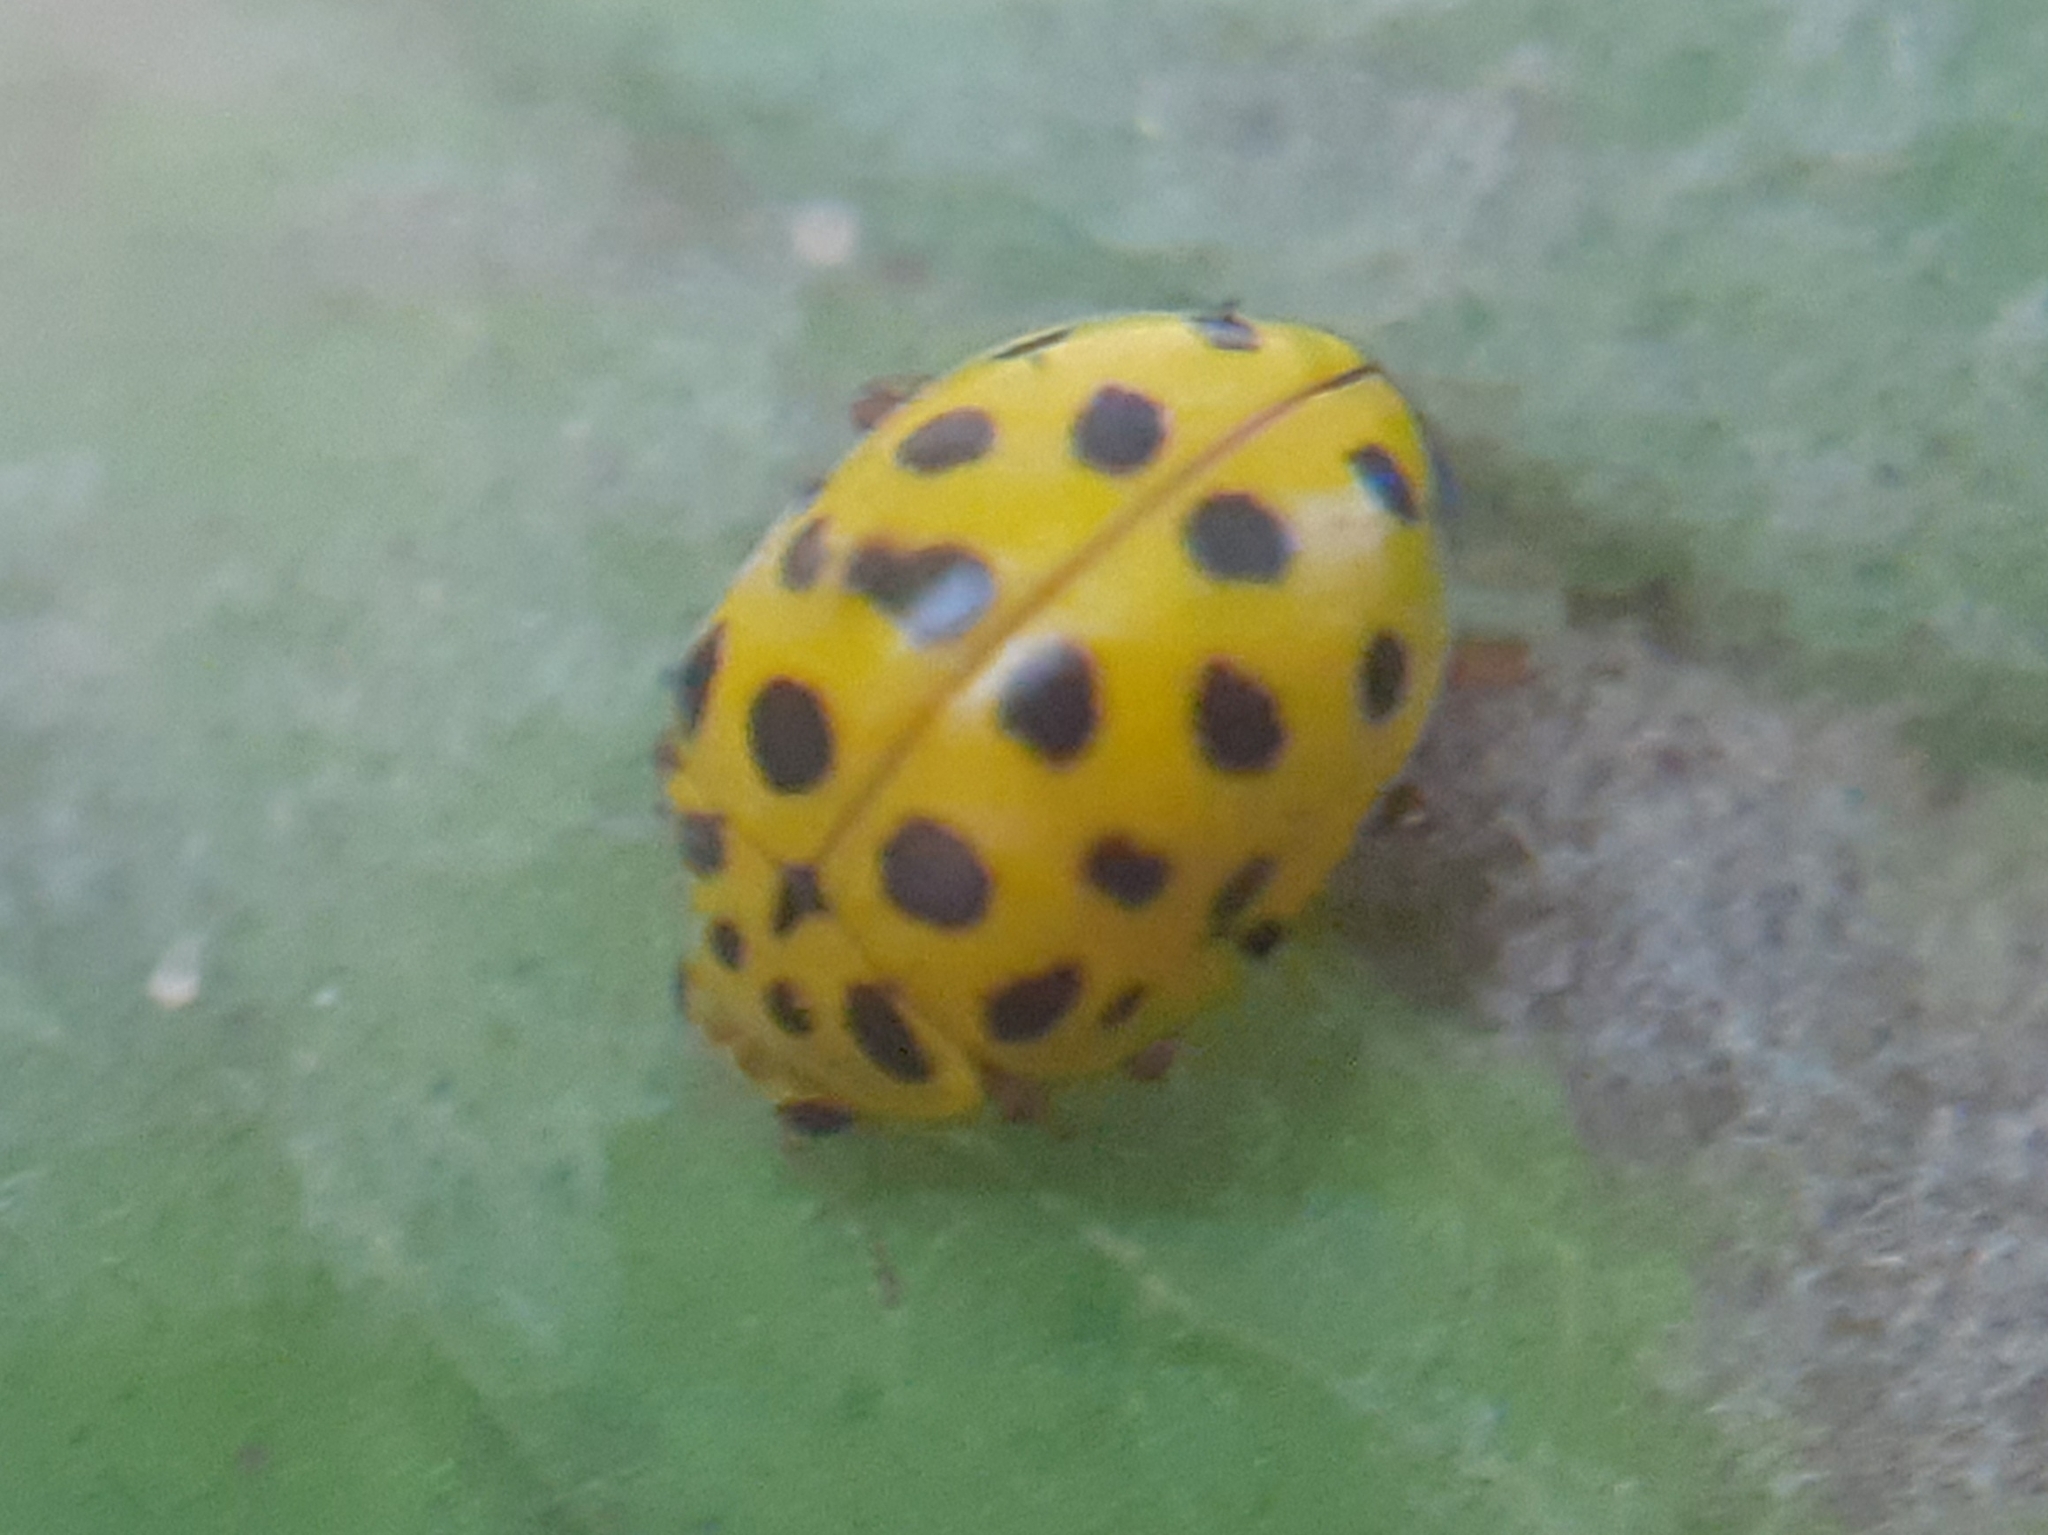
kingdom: Animalia
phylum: Arthropoda
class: Insecta
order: Coleoptera
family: Coccinellidae
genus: Psyllobora
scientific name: Psyllobora vigintiduopunctata
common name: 22-spot ladybird
